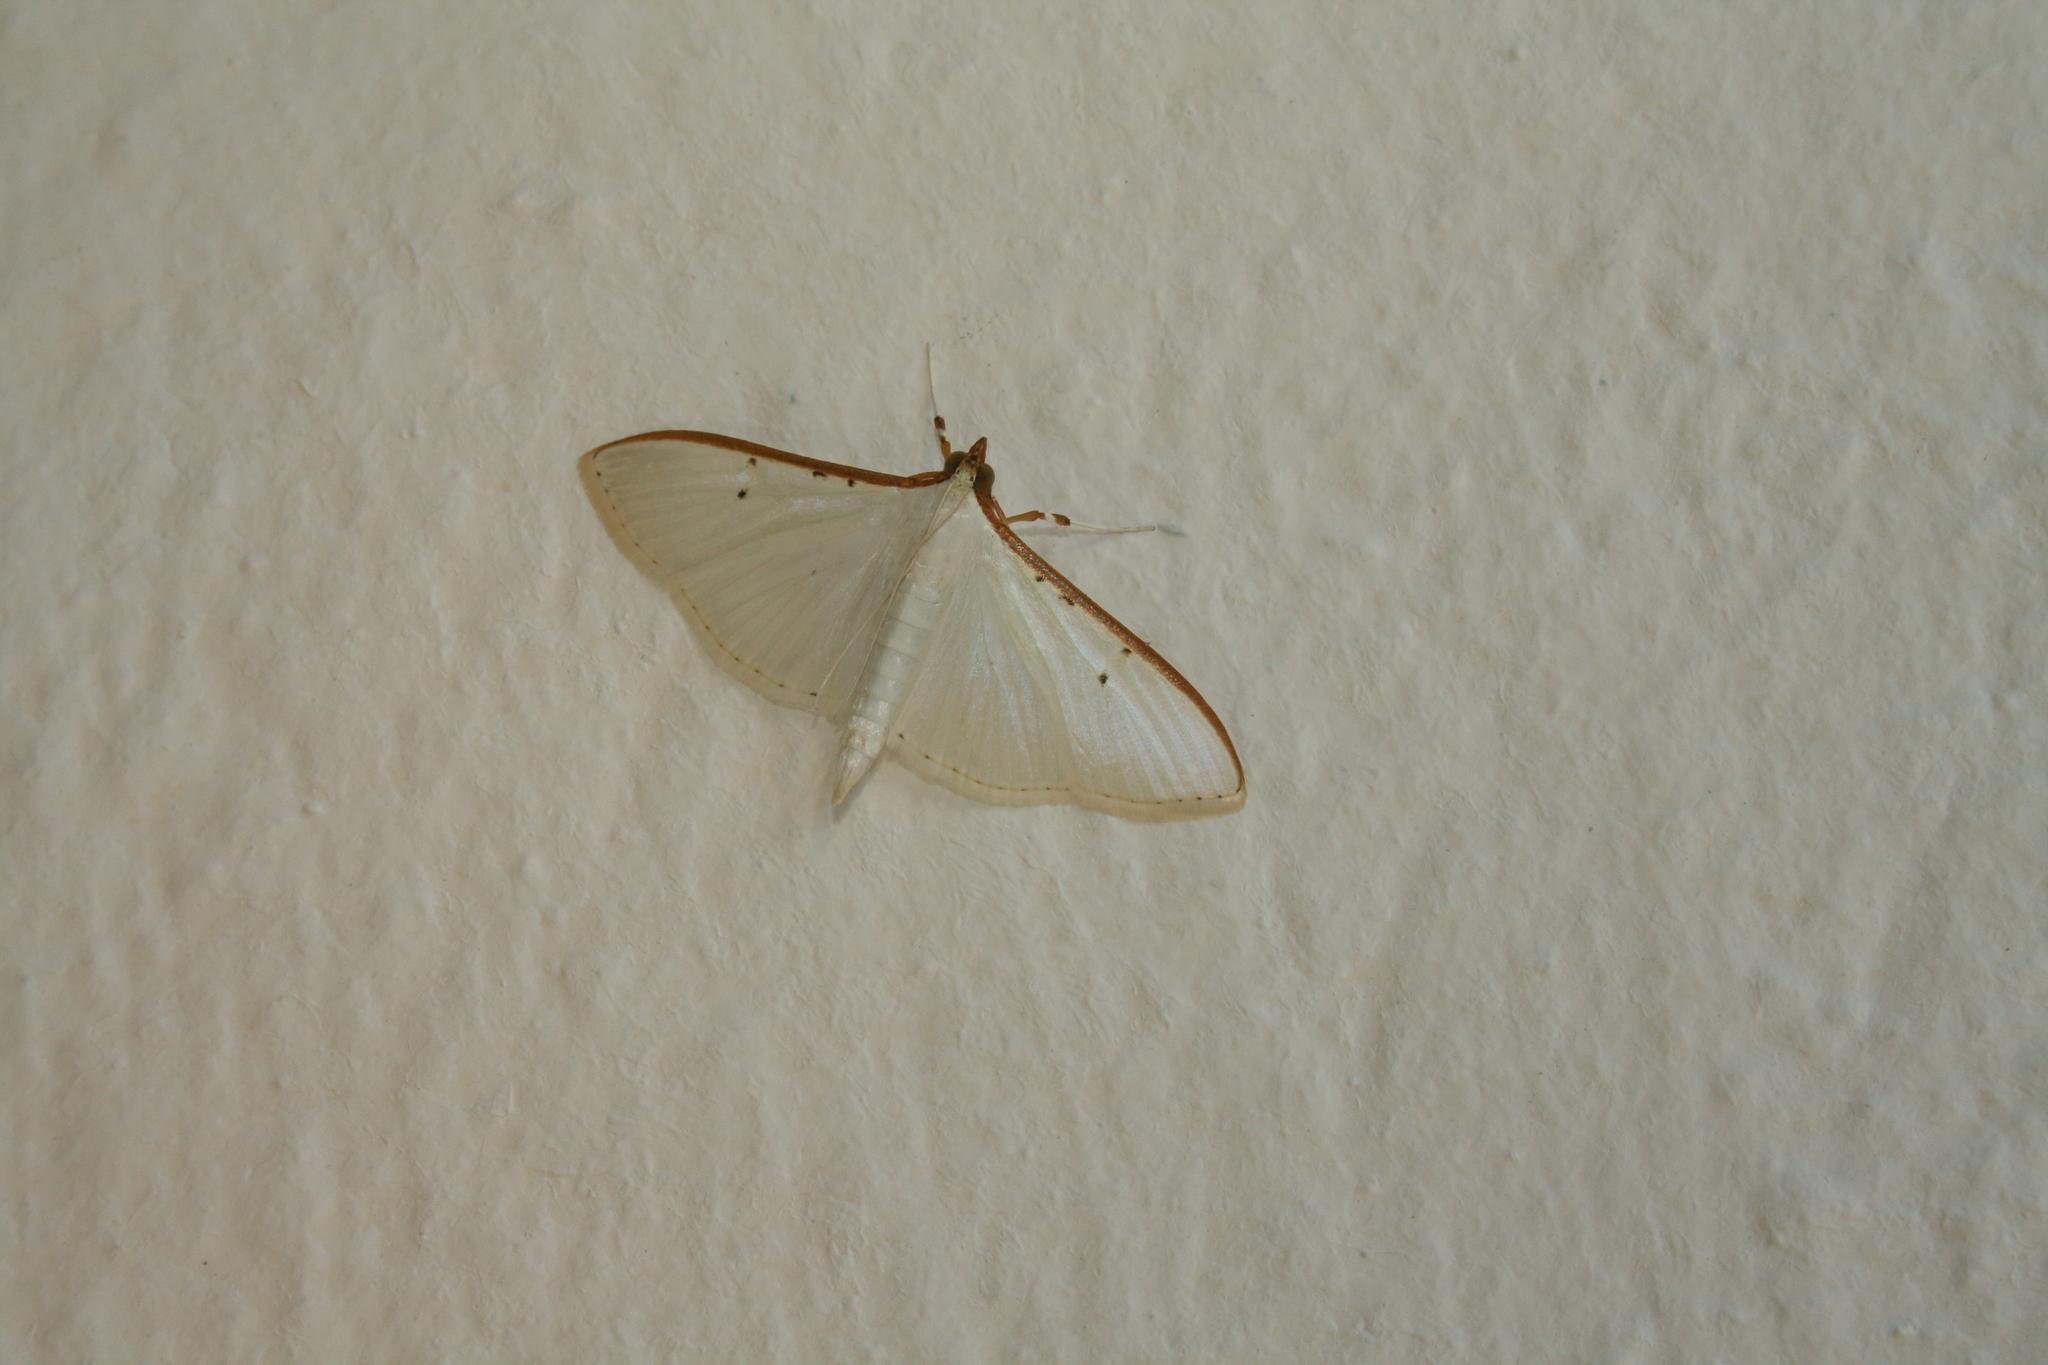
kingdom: Animalia
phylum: Arthropoda
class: Insecta
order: Lepidoptera
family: Crambidae
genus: Palpita
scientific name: Palpita vitrealis
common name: Olive-tree pearl
